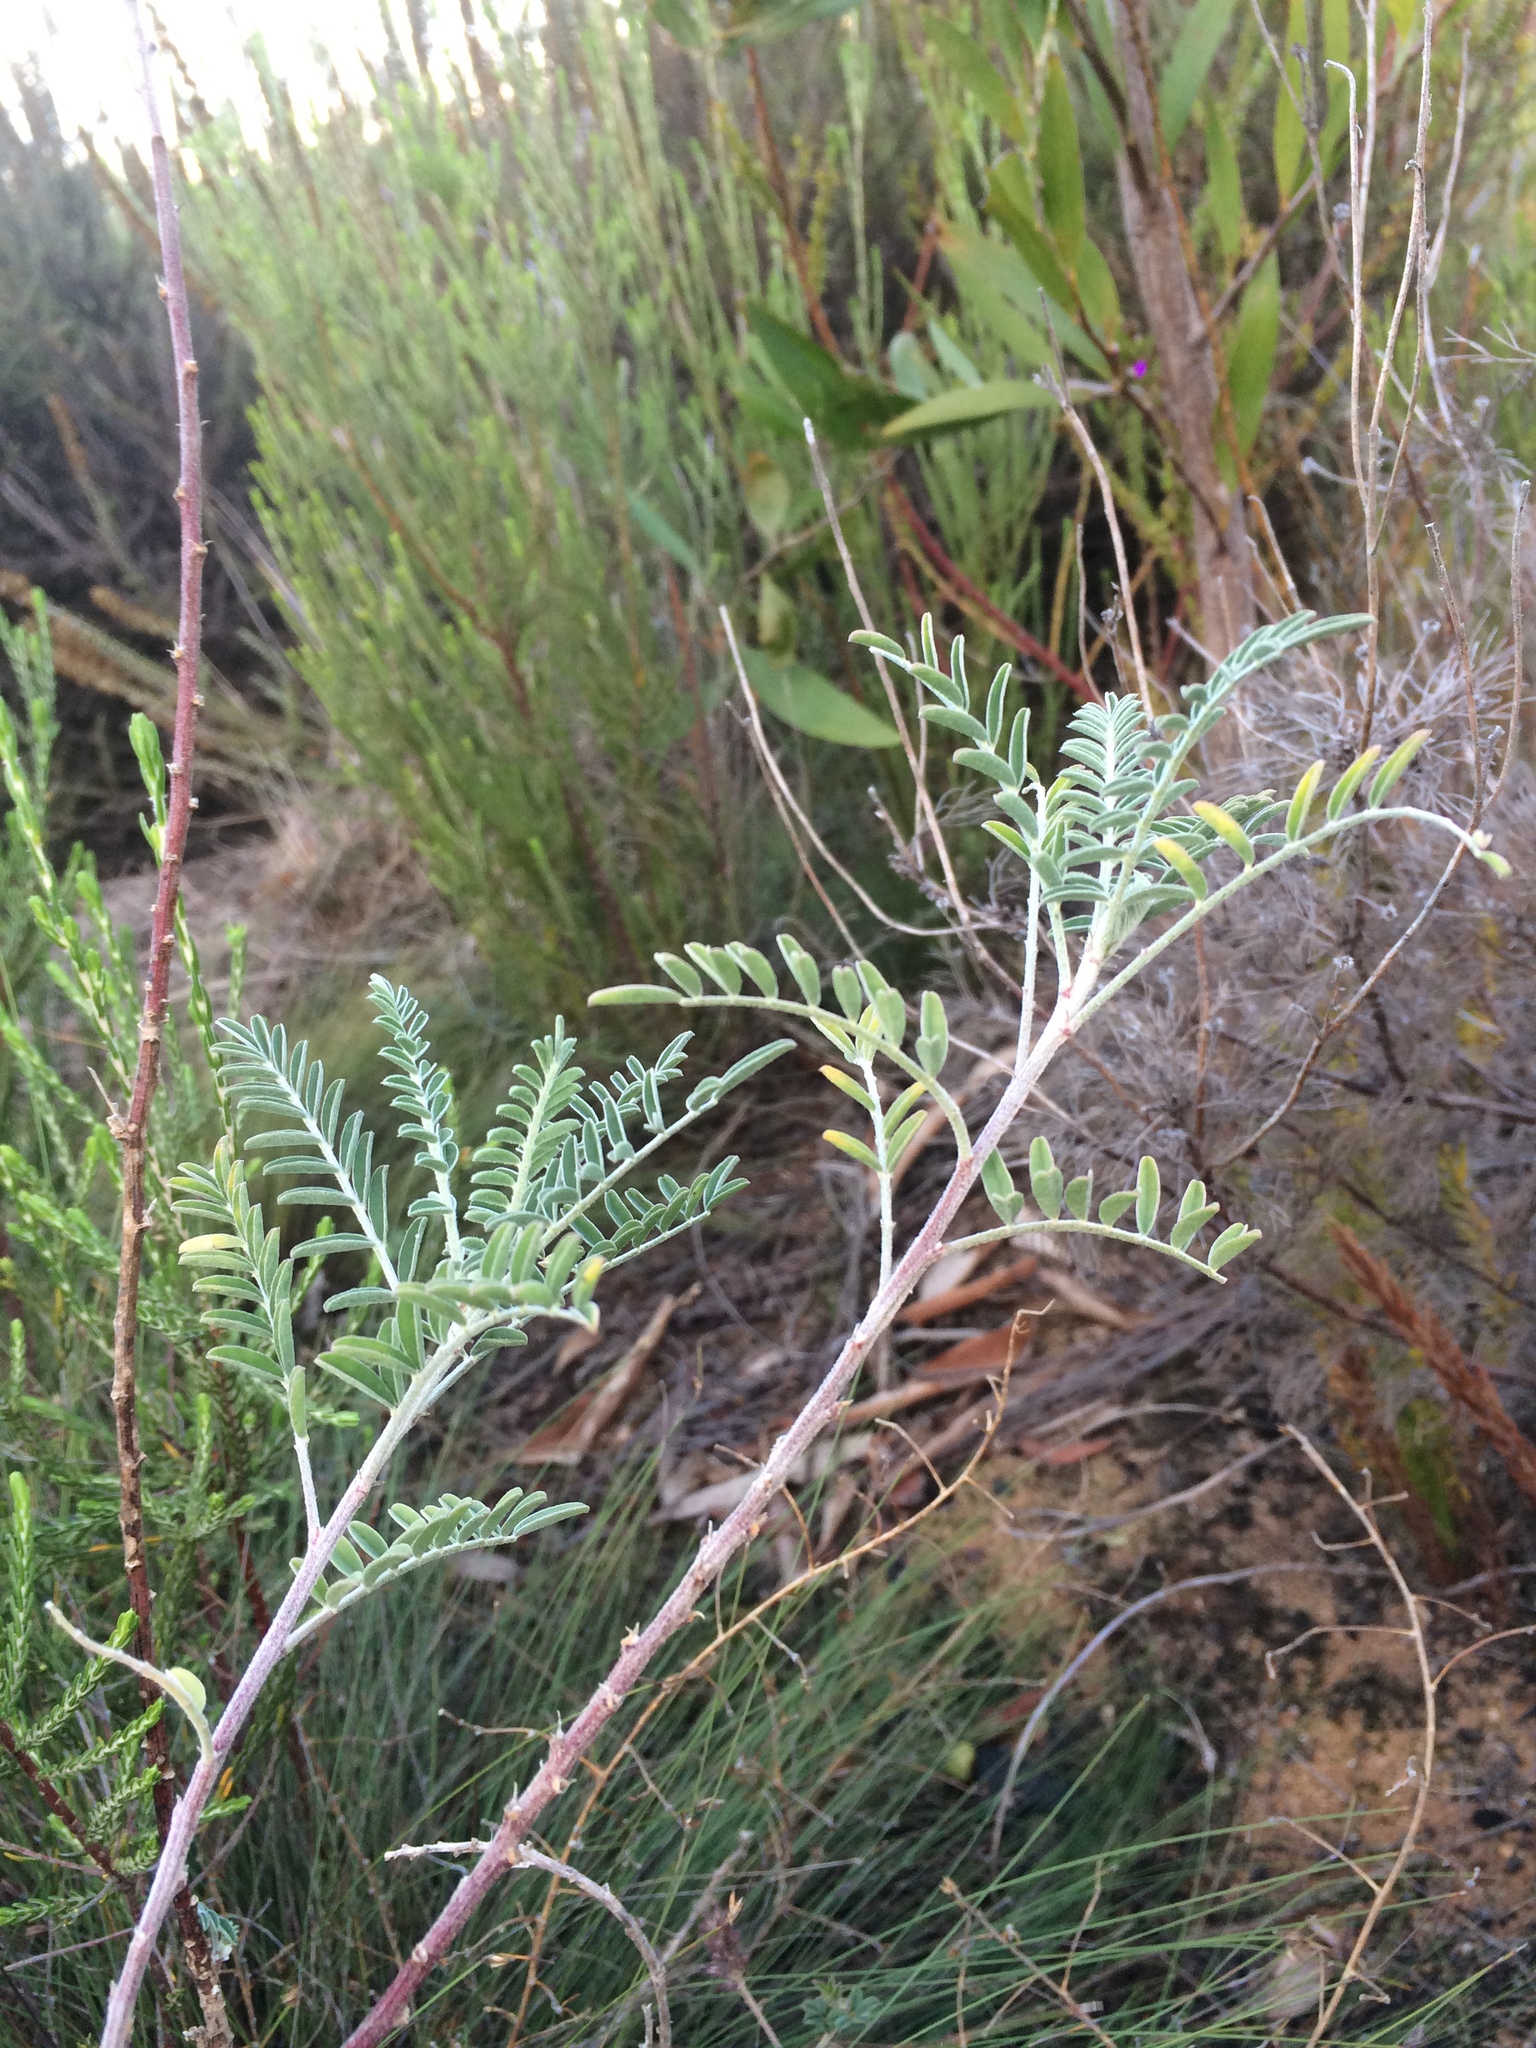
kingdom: Plantae
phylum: Tracheophyta
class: Magnoliopsida
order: Fabales
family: Fabaceae
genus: Lessertia
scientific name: Lessertia frutescens
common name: Balloon-pea
